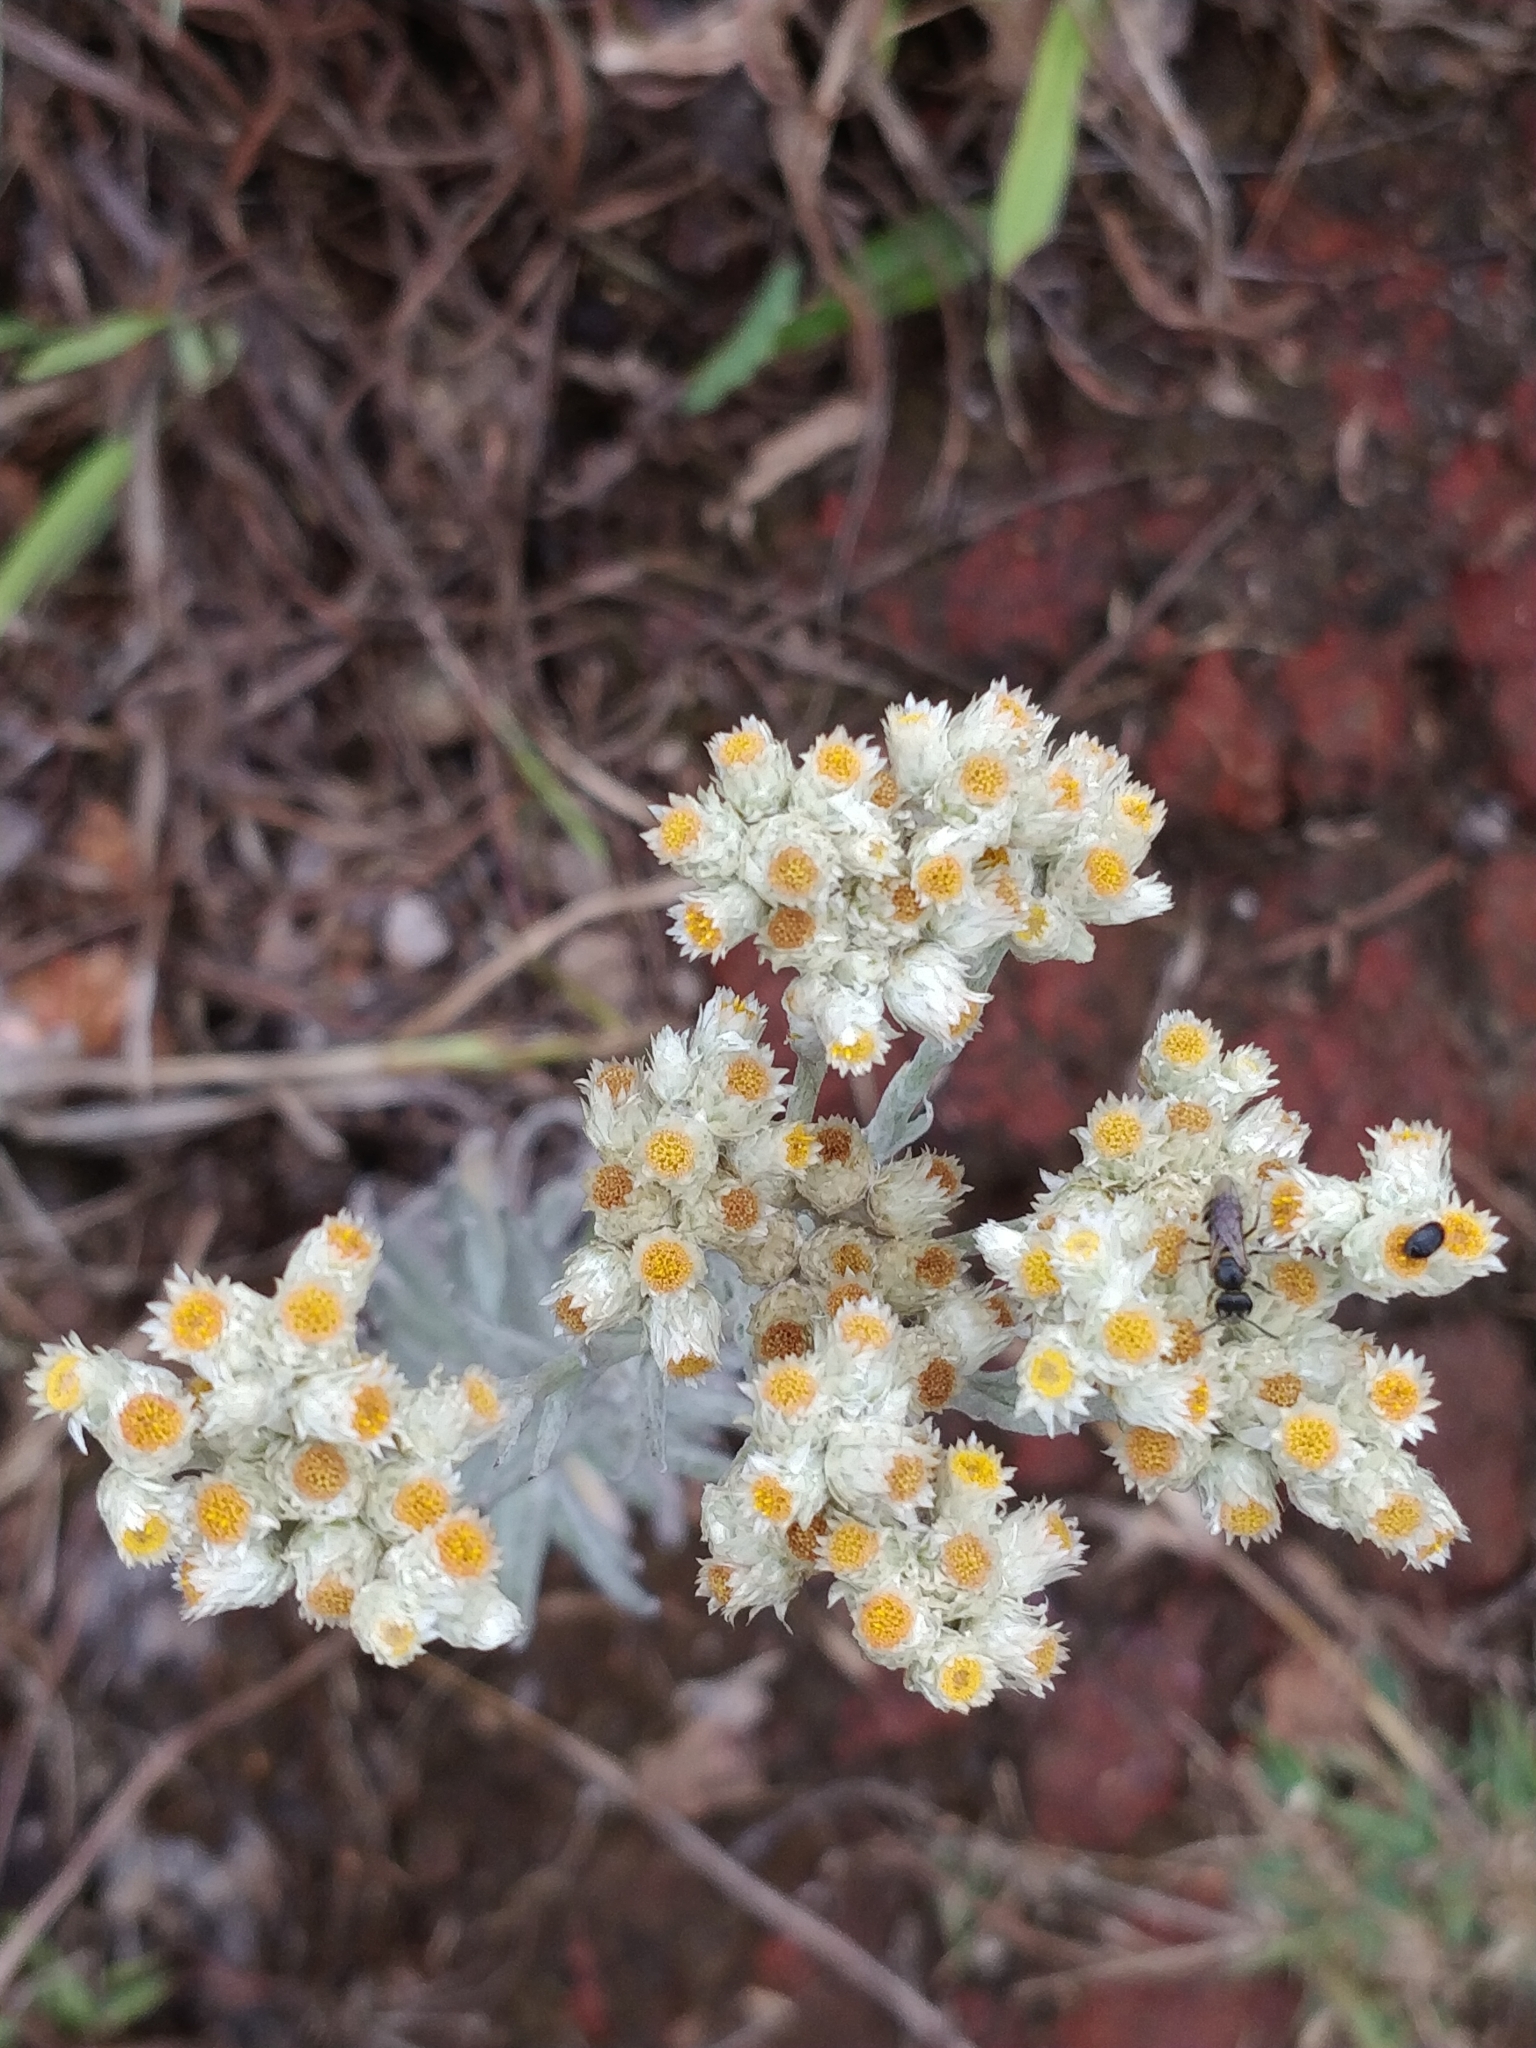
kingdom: Plantae
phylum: Tracheophyta
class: Magnoliopsida
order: Asterales
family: Asteraceae
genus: Anaphalis
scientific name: Anaphalis lawii
